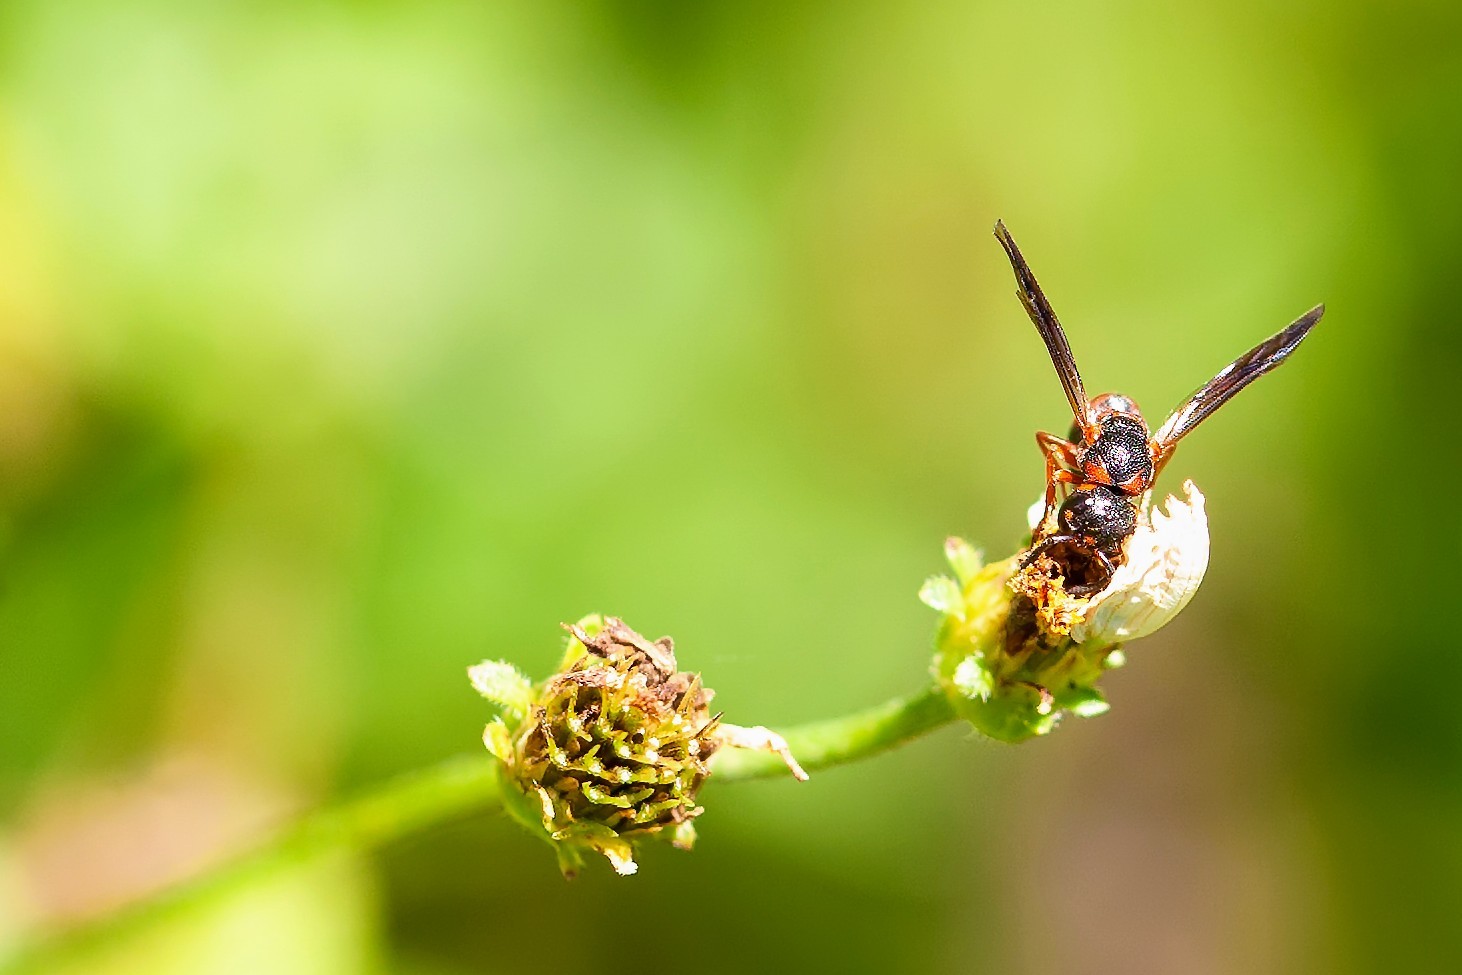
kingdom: Animalia
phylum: Arthropoda
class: Insecta
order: Hymenoptera
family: Eumenidae
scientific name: Eumenidae
